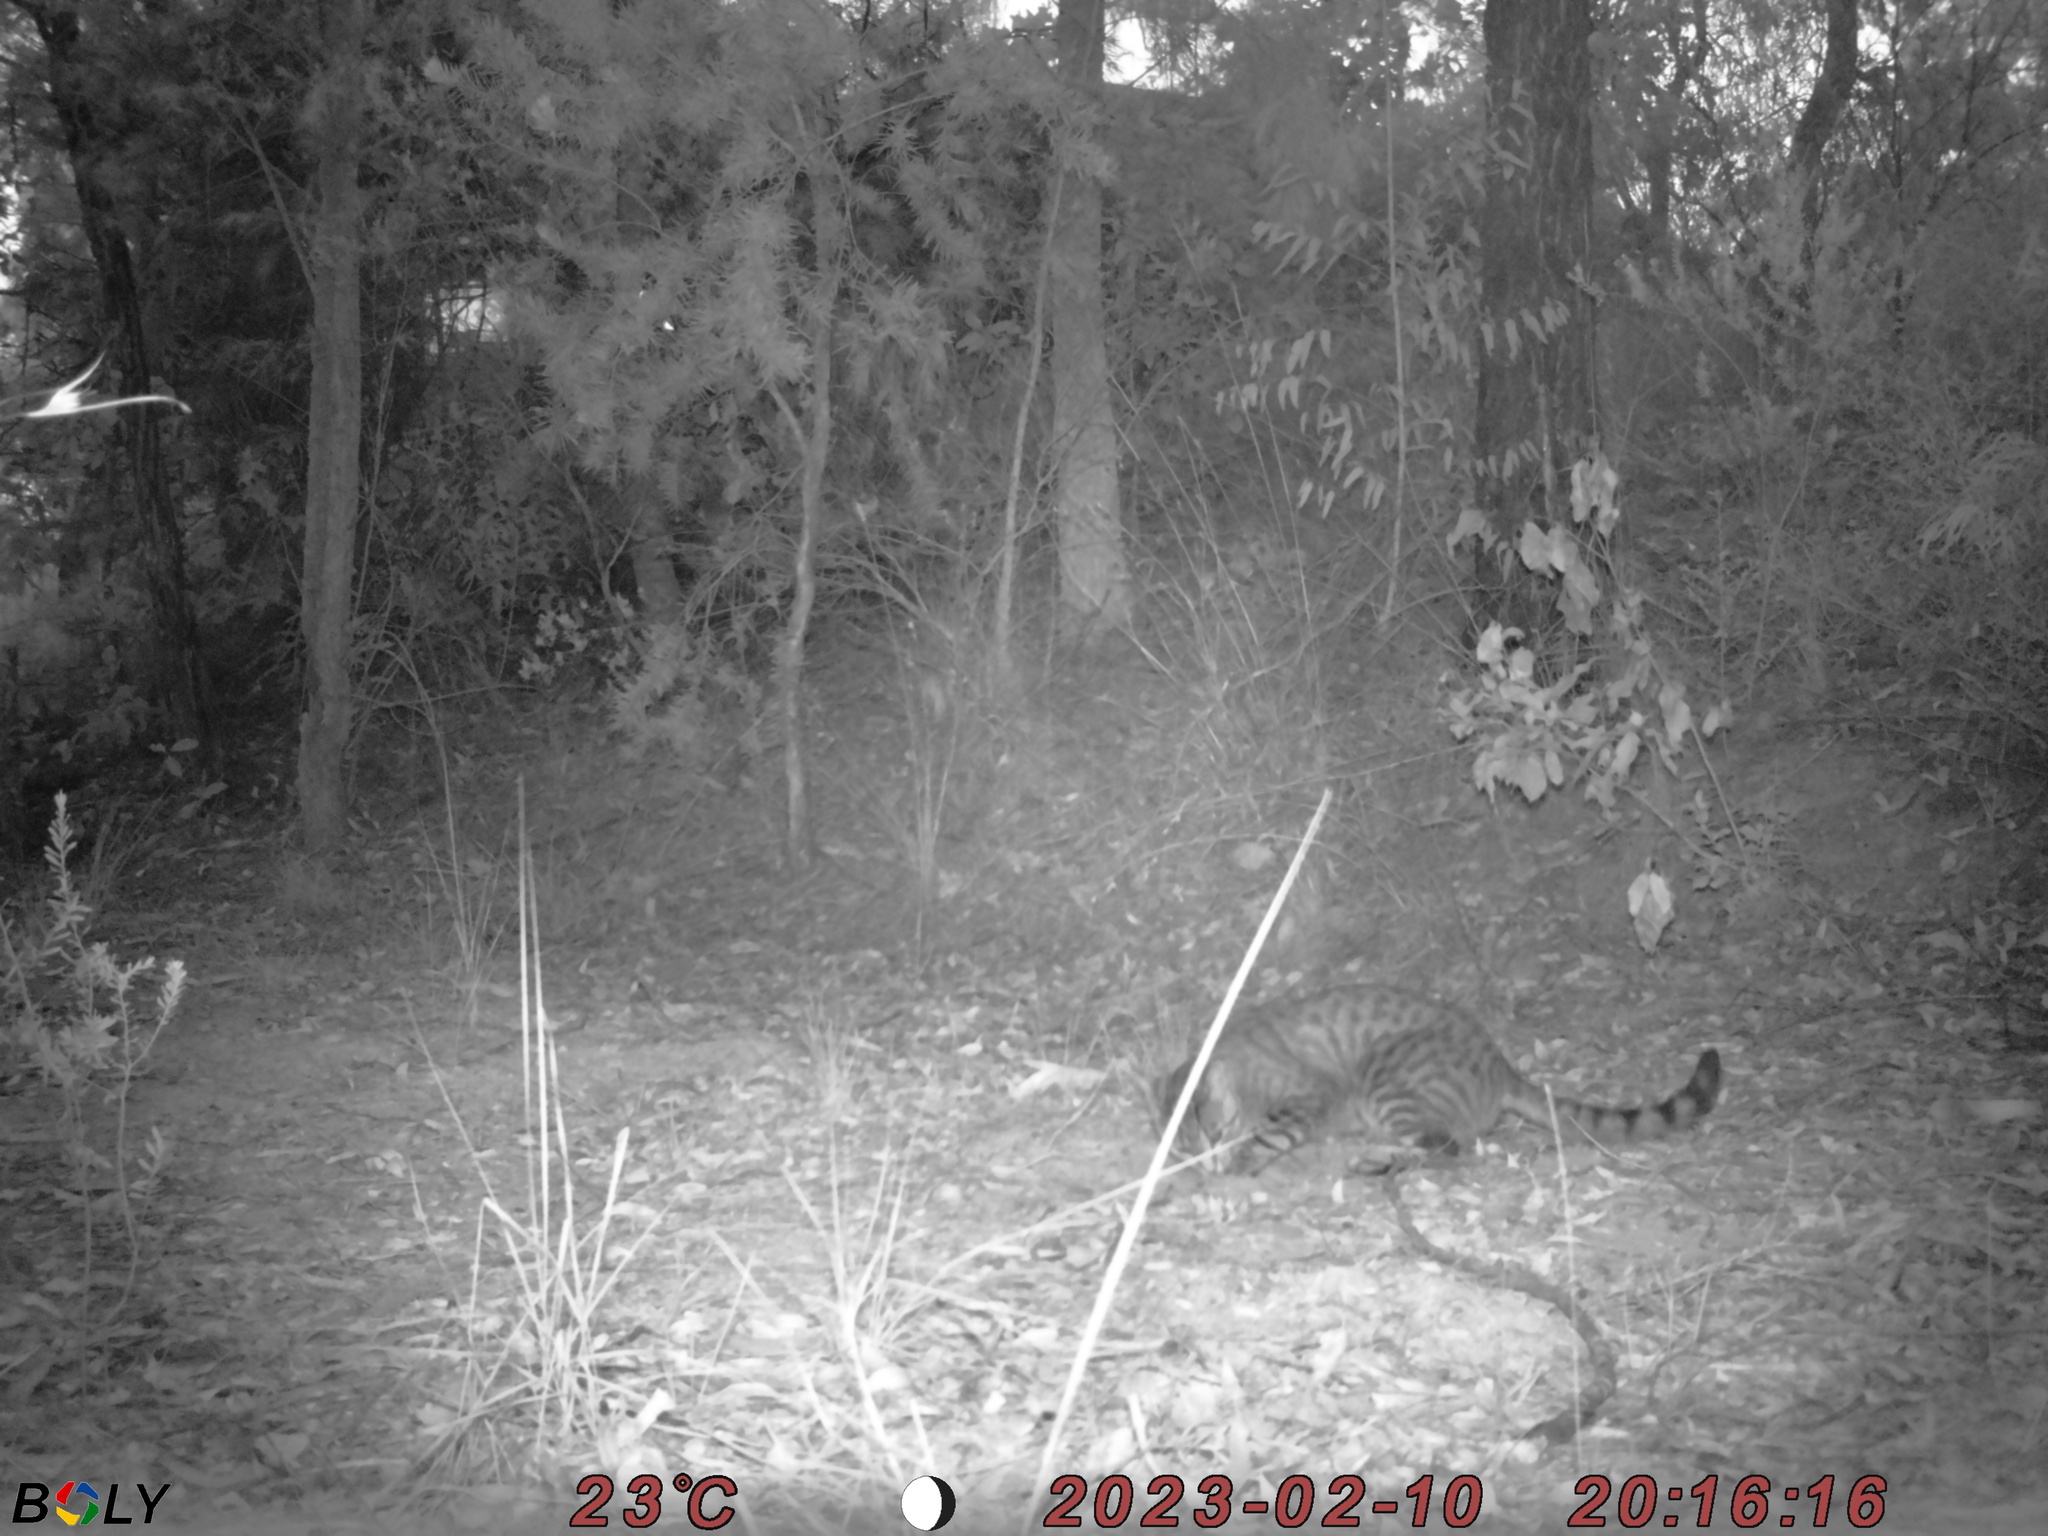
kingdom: Animalia
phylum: Chordata
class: Mammalia
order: Carnivora
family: Felidae
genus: Felis
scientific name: Felis catus
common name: Domestic cat
